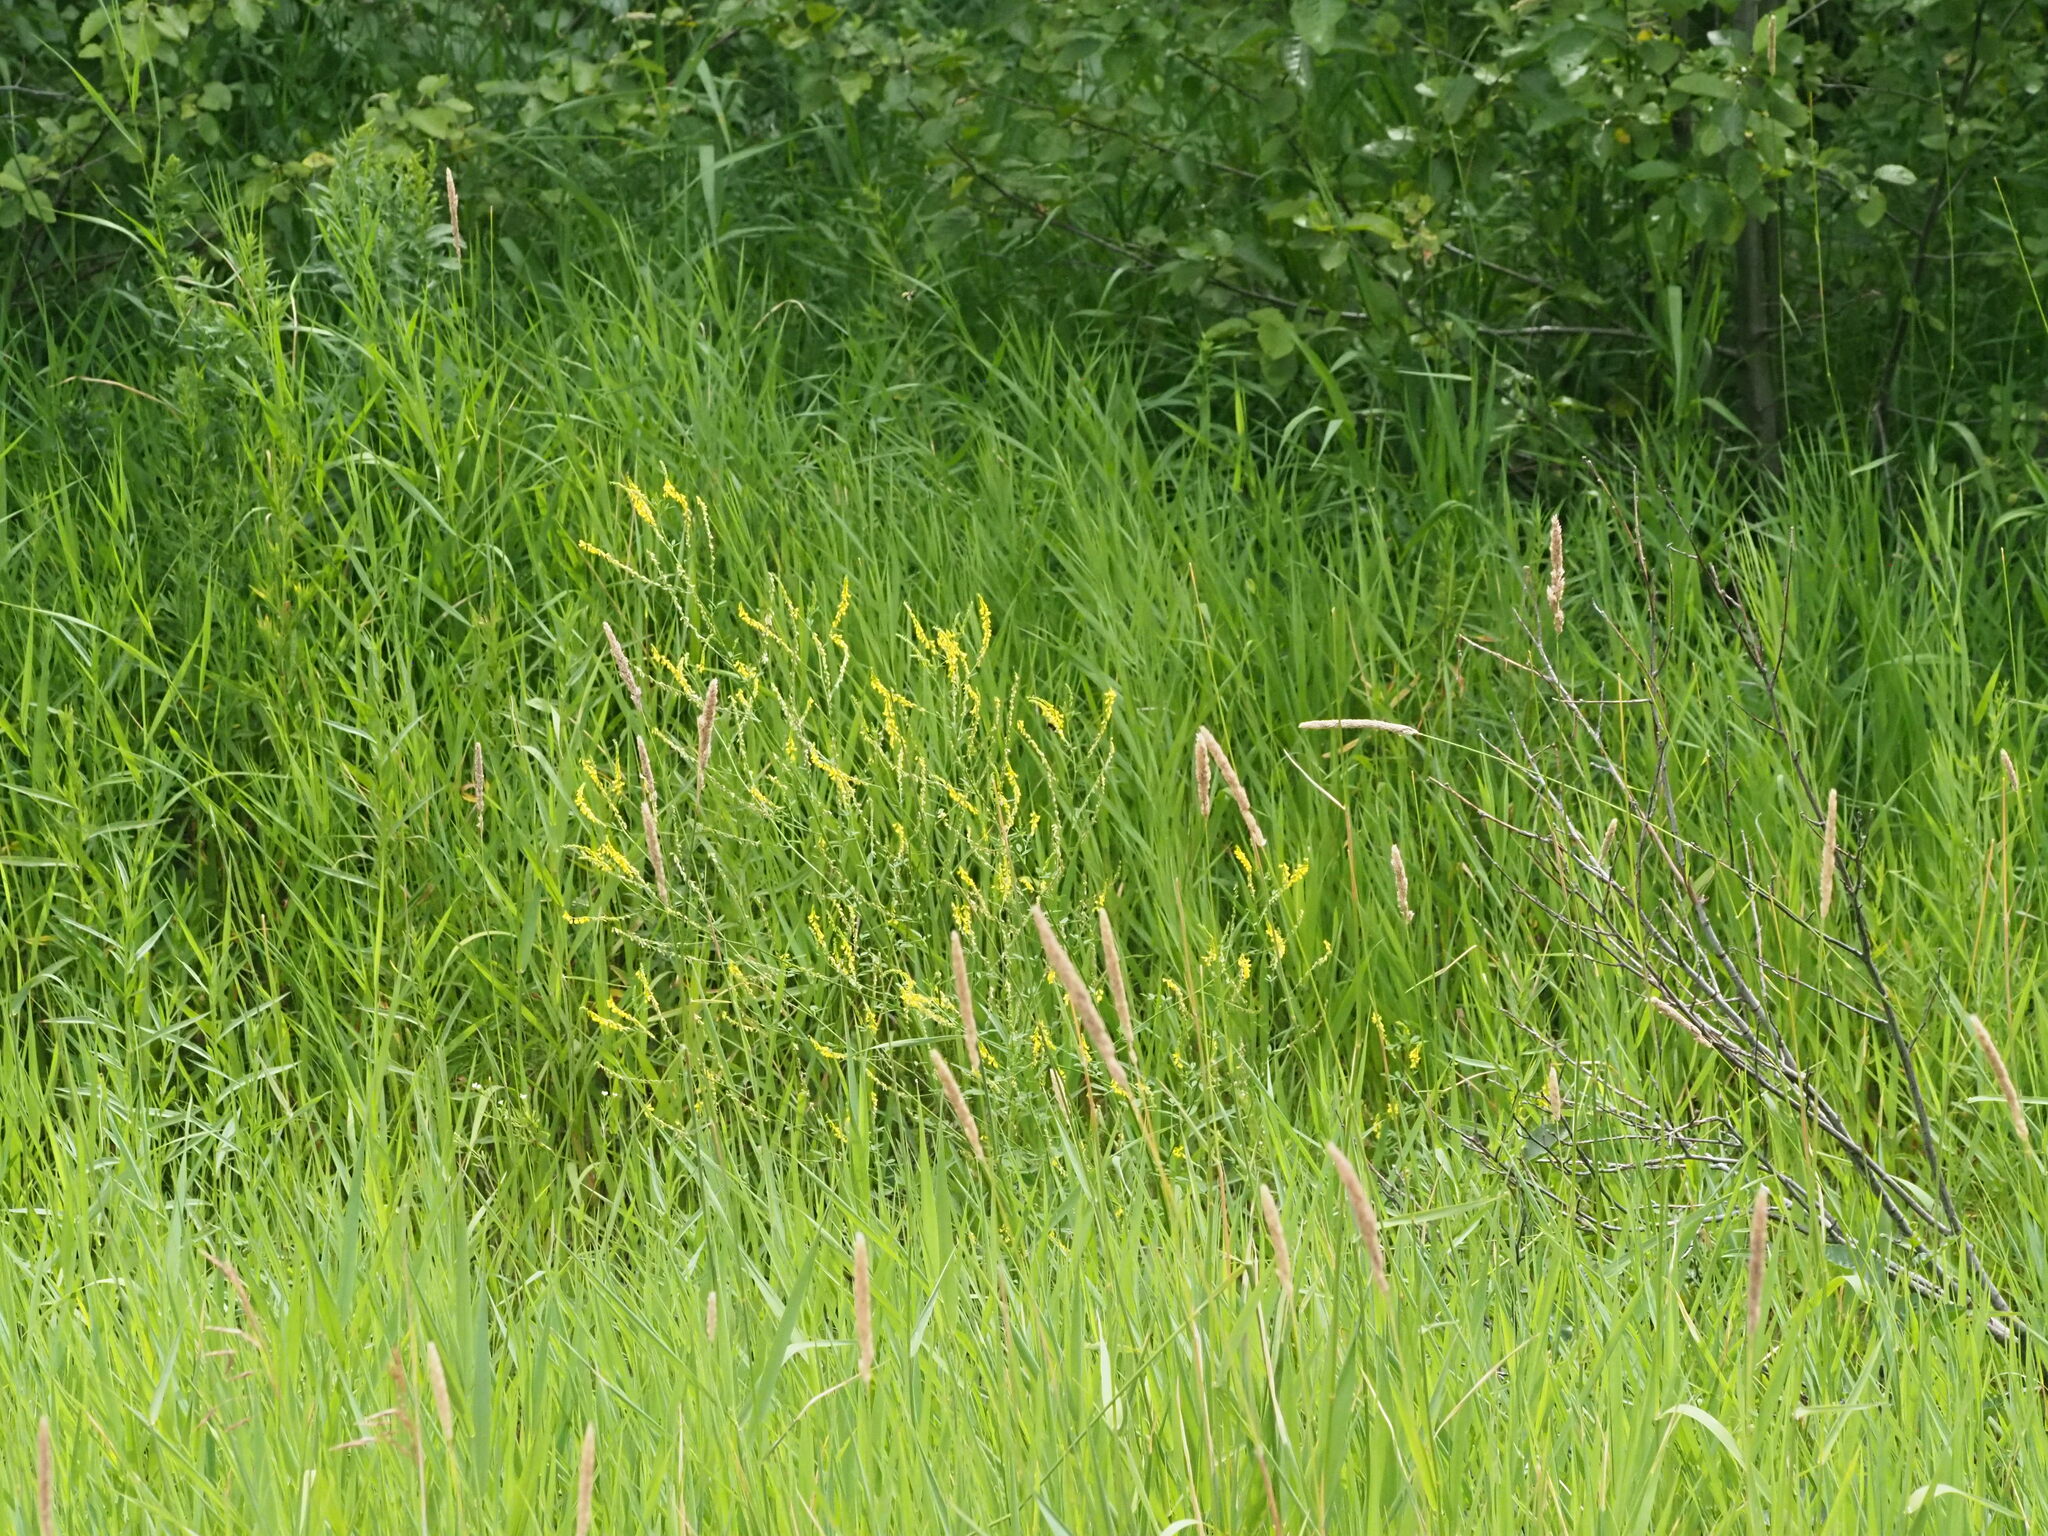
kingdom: Plantae
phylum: Tracheophyta
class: Magnoliopsida
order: Fabales
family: Fabaceae
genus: Melilotus
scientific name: Melilotus officinalis
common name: Sweetclover
